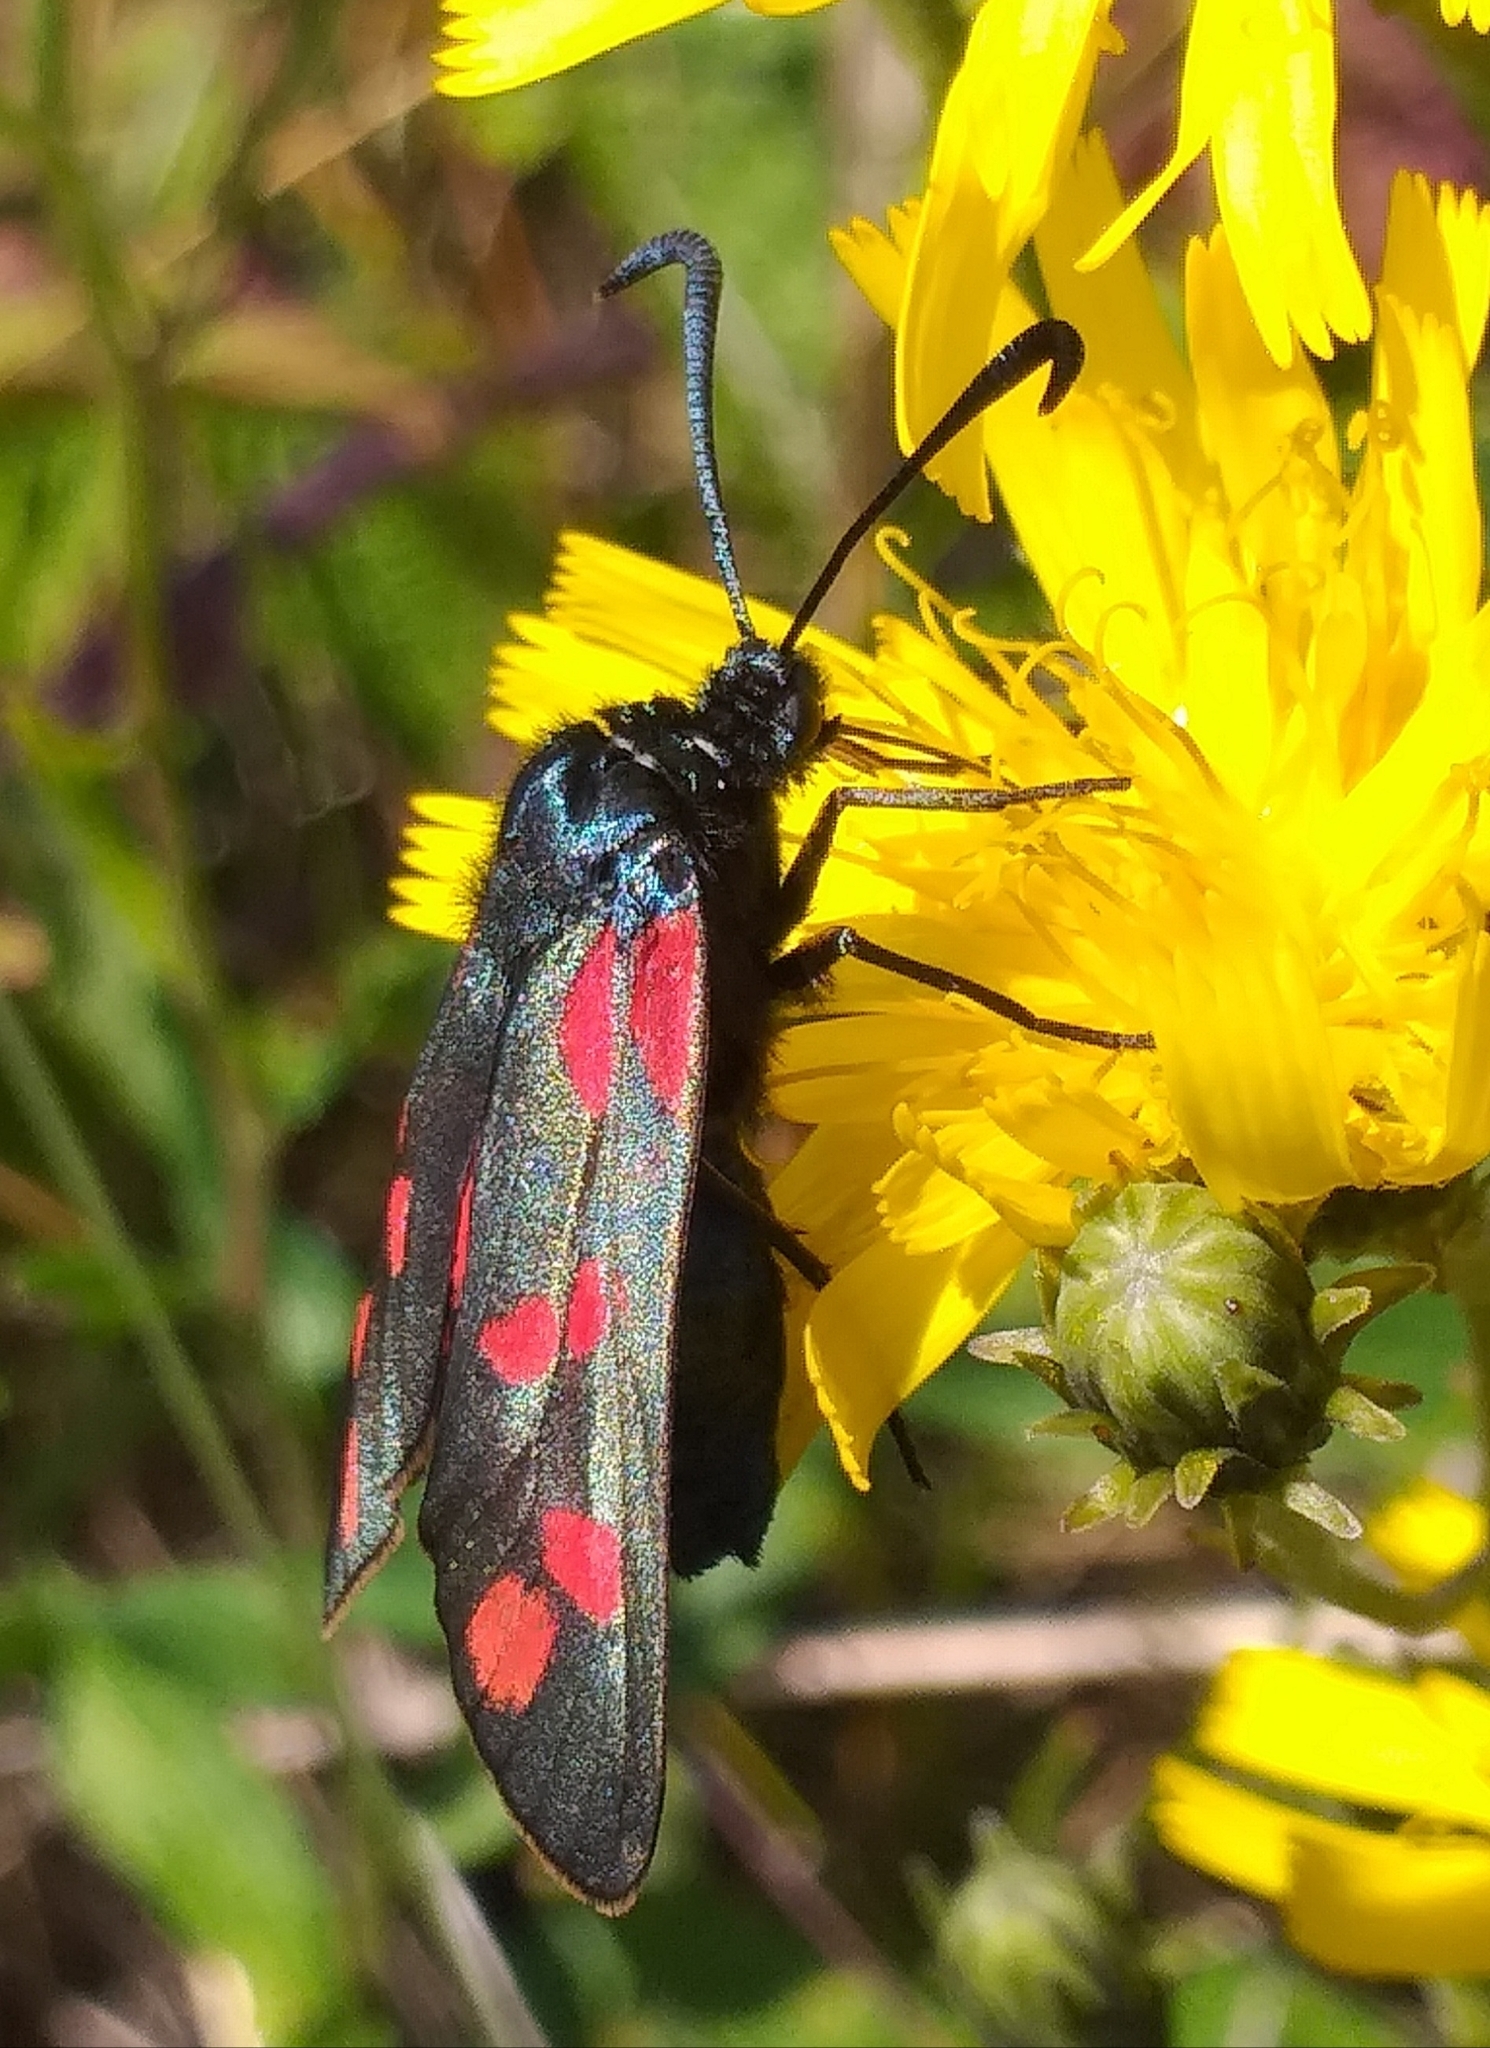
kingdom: Animalia
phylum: Arthropoda
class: Insecta
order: Lepidoptera
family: Zygaenidae
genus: Zygaena
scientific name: Zygaena filipendulae
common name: Six-spot burnet
